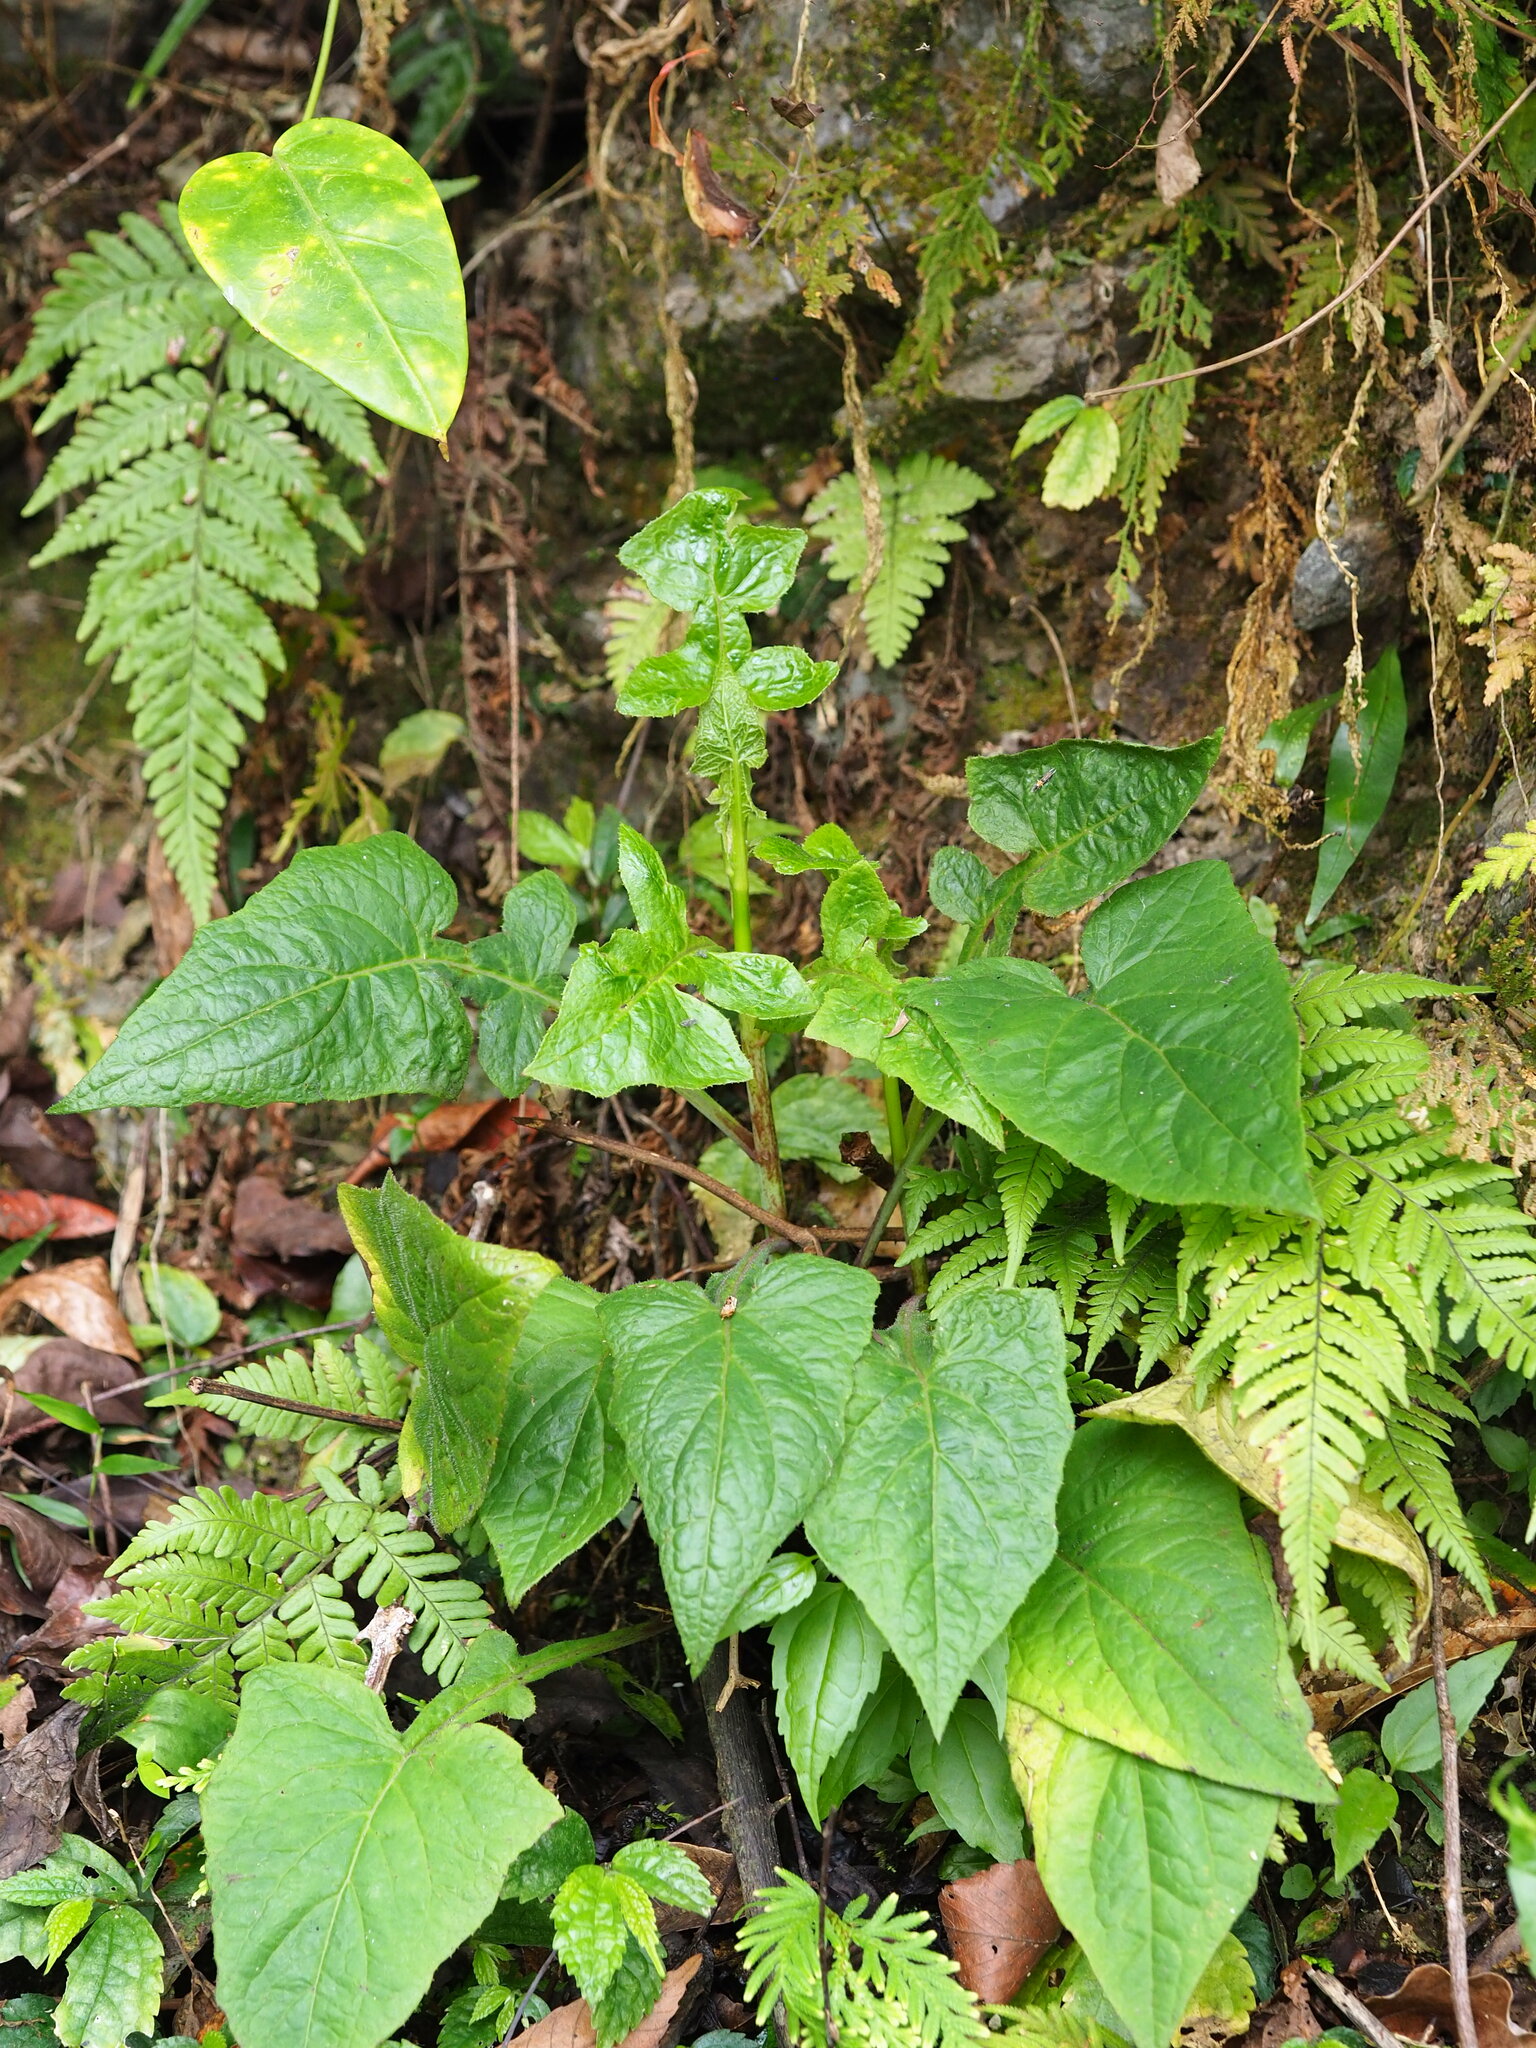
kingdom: Plantae
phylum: Tracheophyta
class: Magnoliopsida
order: Asterales
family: Asteraceae
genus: Paraprenanthes
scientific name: Paraprenanthes sororia
